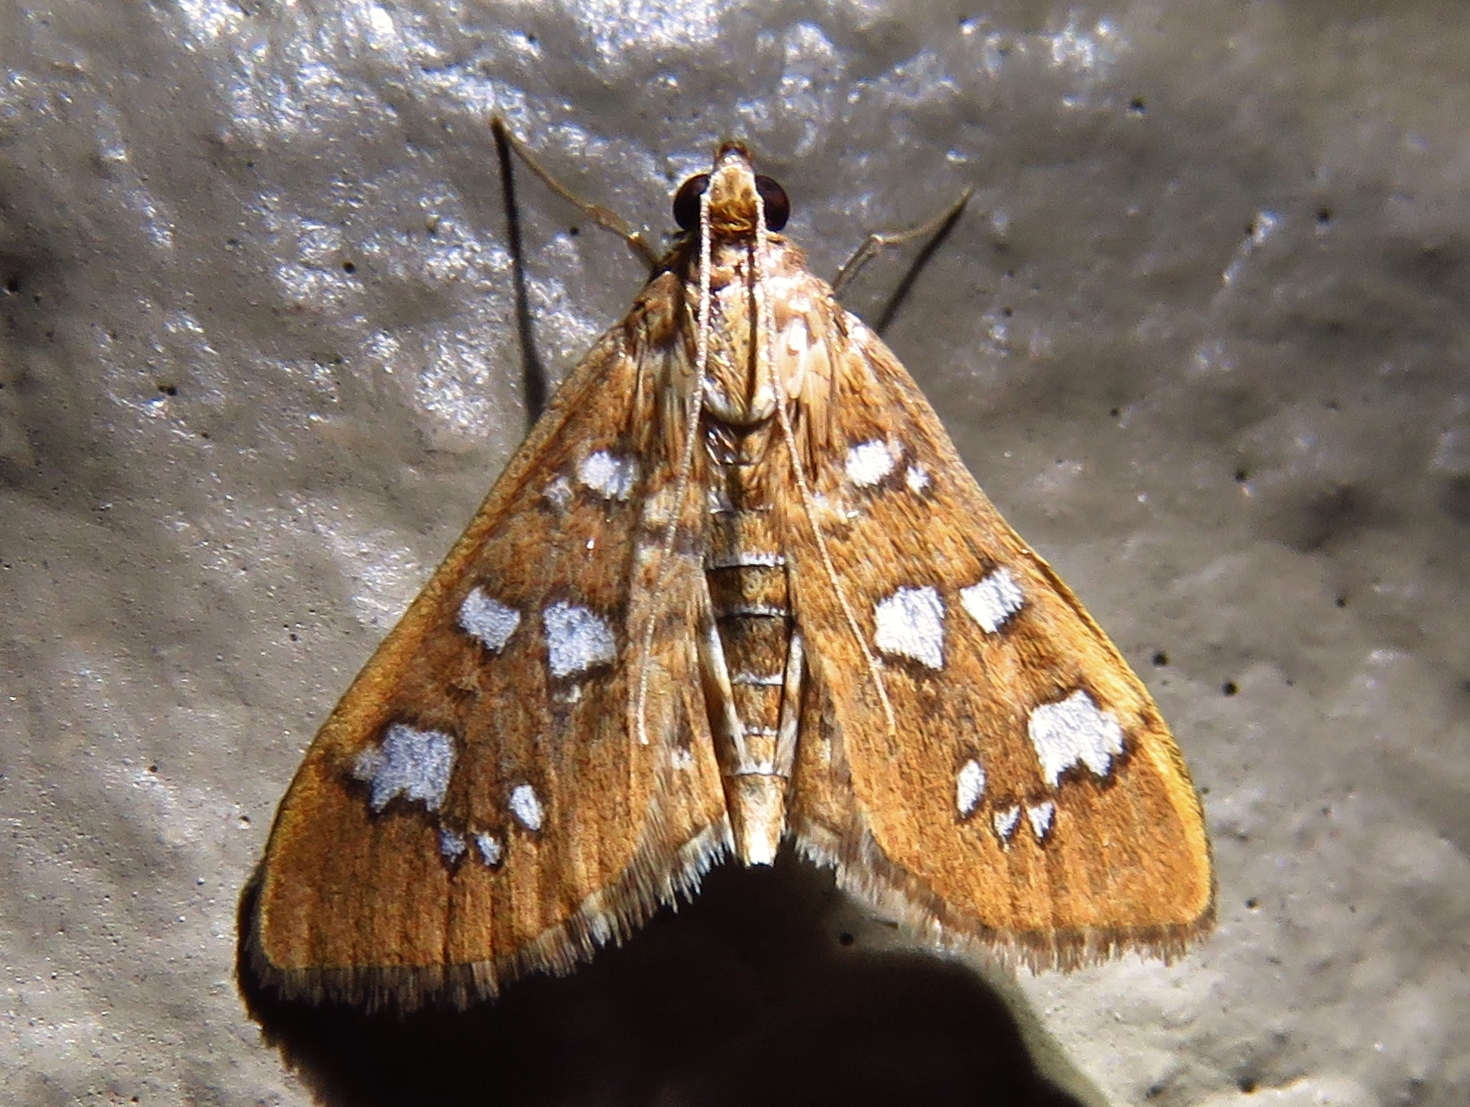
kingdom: Animalia
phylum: Arthropoda
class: Insecta
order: Lepidoptera
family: Crambidae
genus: Samea
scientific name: Samea baccatalis
